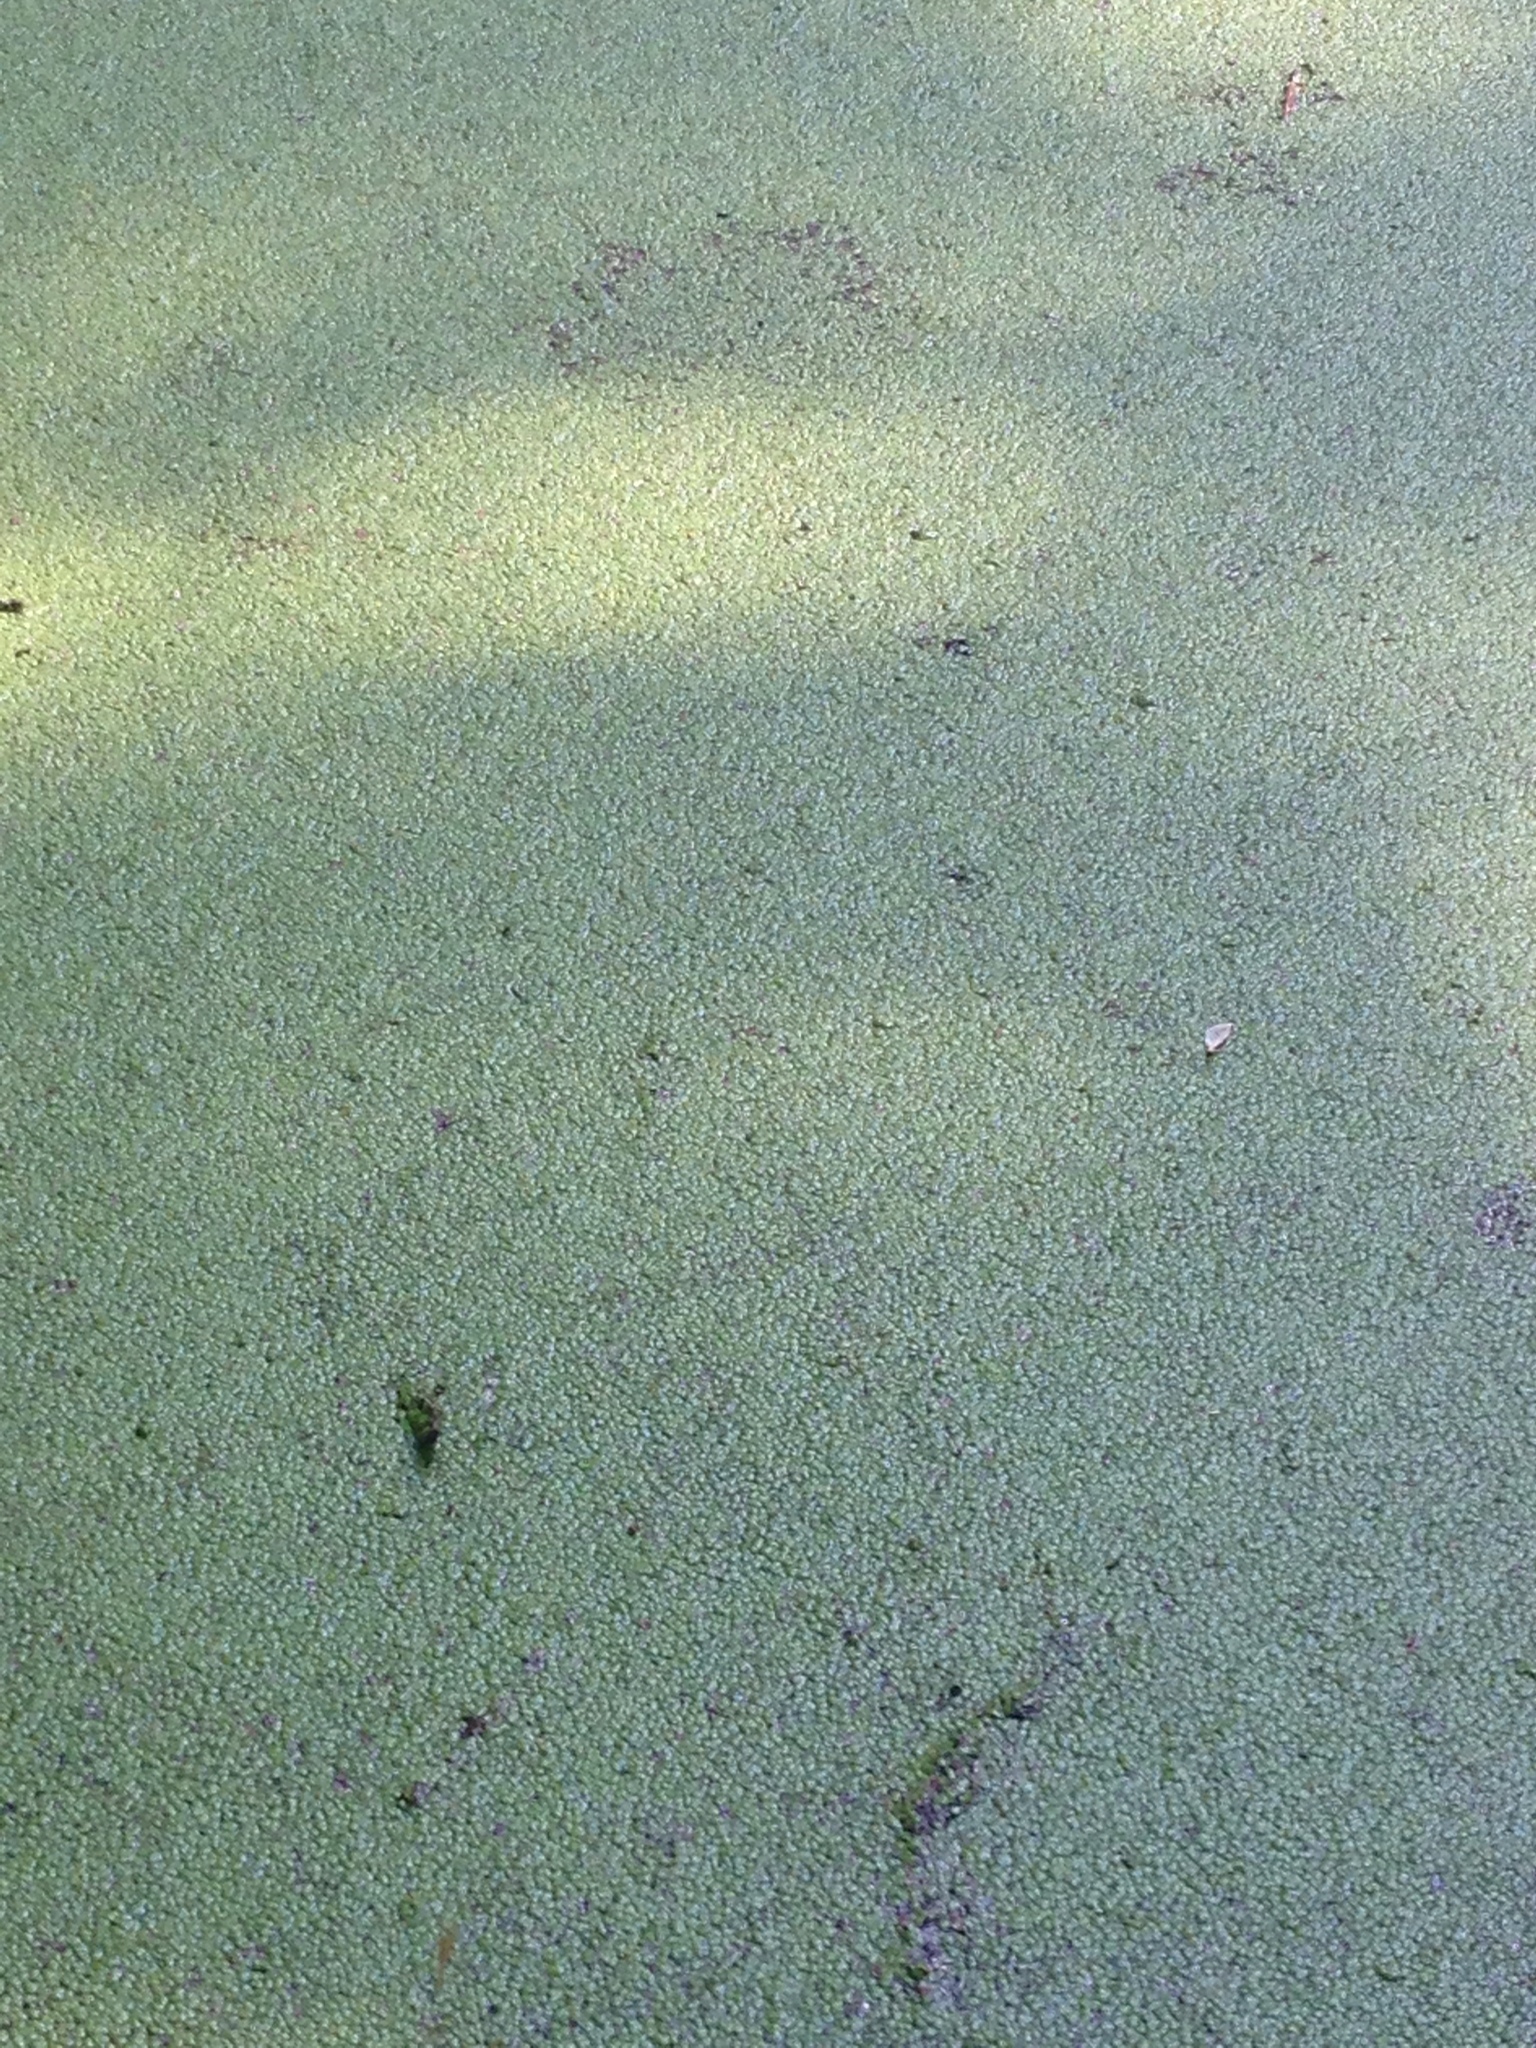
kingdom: Plantae
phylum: Tracheophyta
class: Liliopsida
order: Alismatales
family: Araceae
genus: Lemna
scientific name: Lemna minor
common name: Common duckweed
